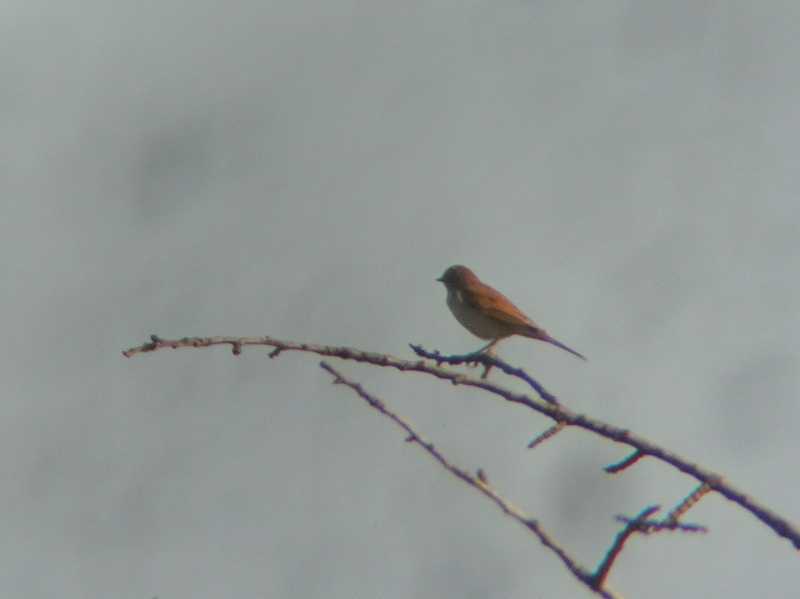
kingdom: Animalia
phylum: Chordata
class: Aves
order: Passeriformes
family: Sylviidae
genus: Sylvia
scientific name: Sylvia communis
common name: Common whitethroat
